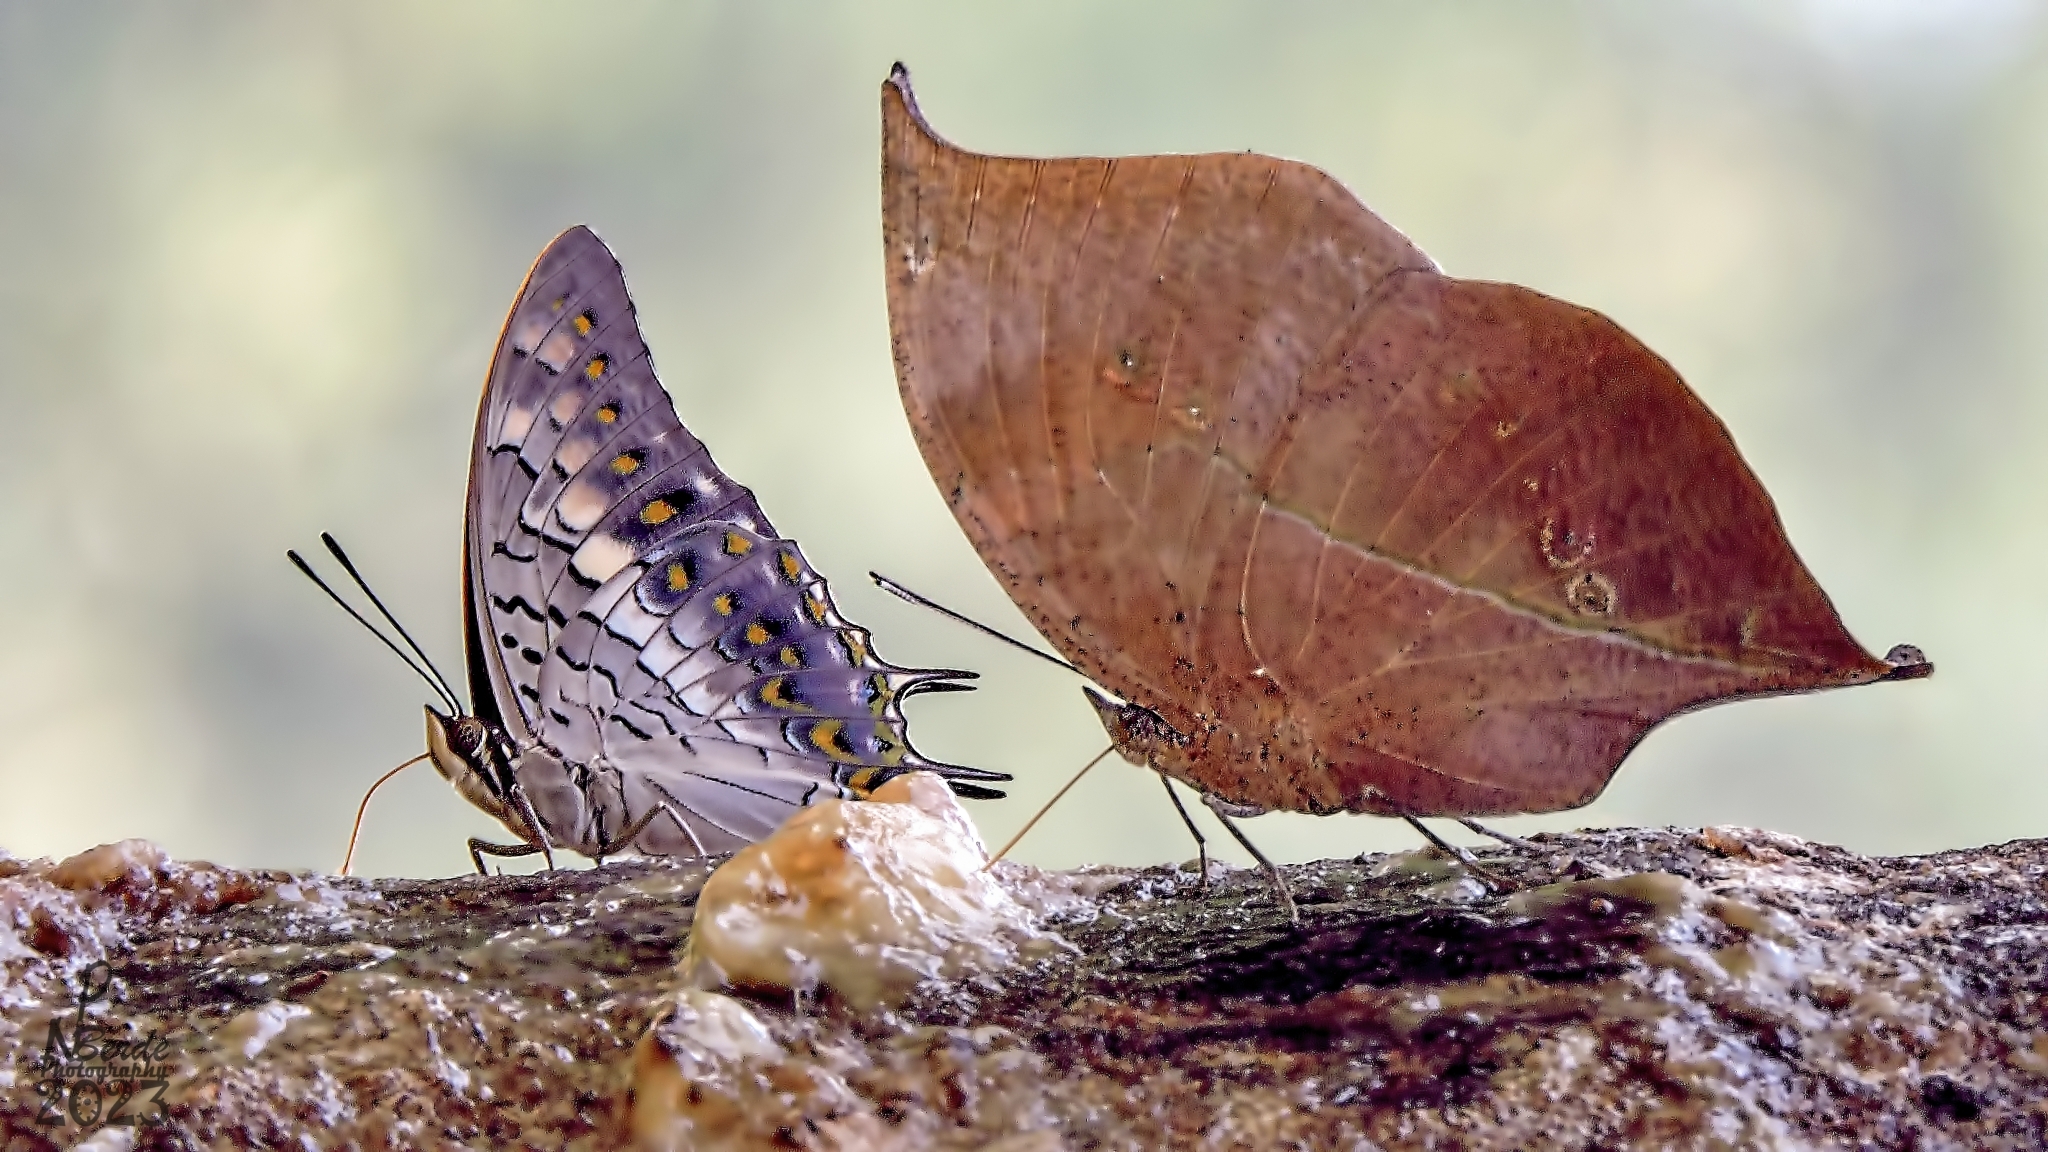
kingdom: Animalia
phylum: Arthropoda
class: Insecta
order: Lepidoptera
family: Nymphalidae
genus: Kallima
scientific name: Kallima horsfieldii
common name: Sahyadri blue oakleaf
